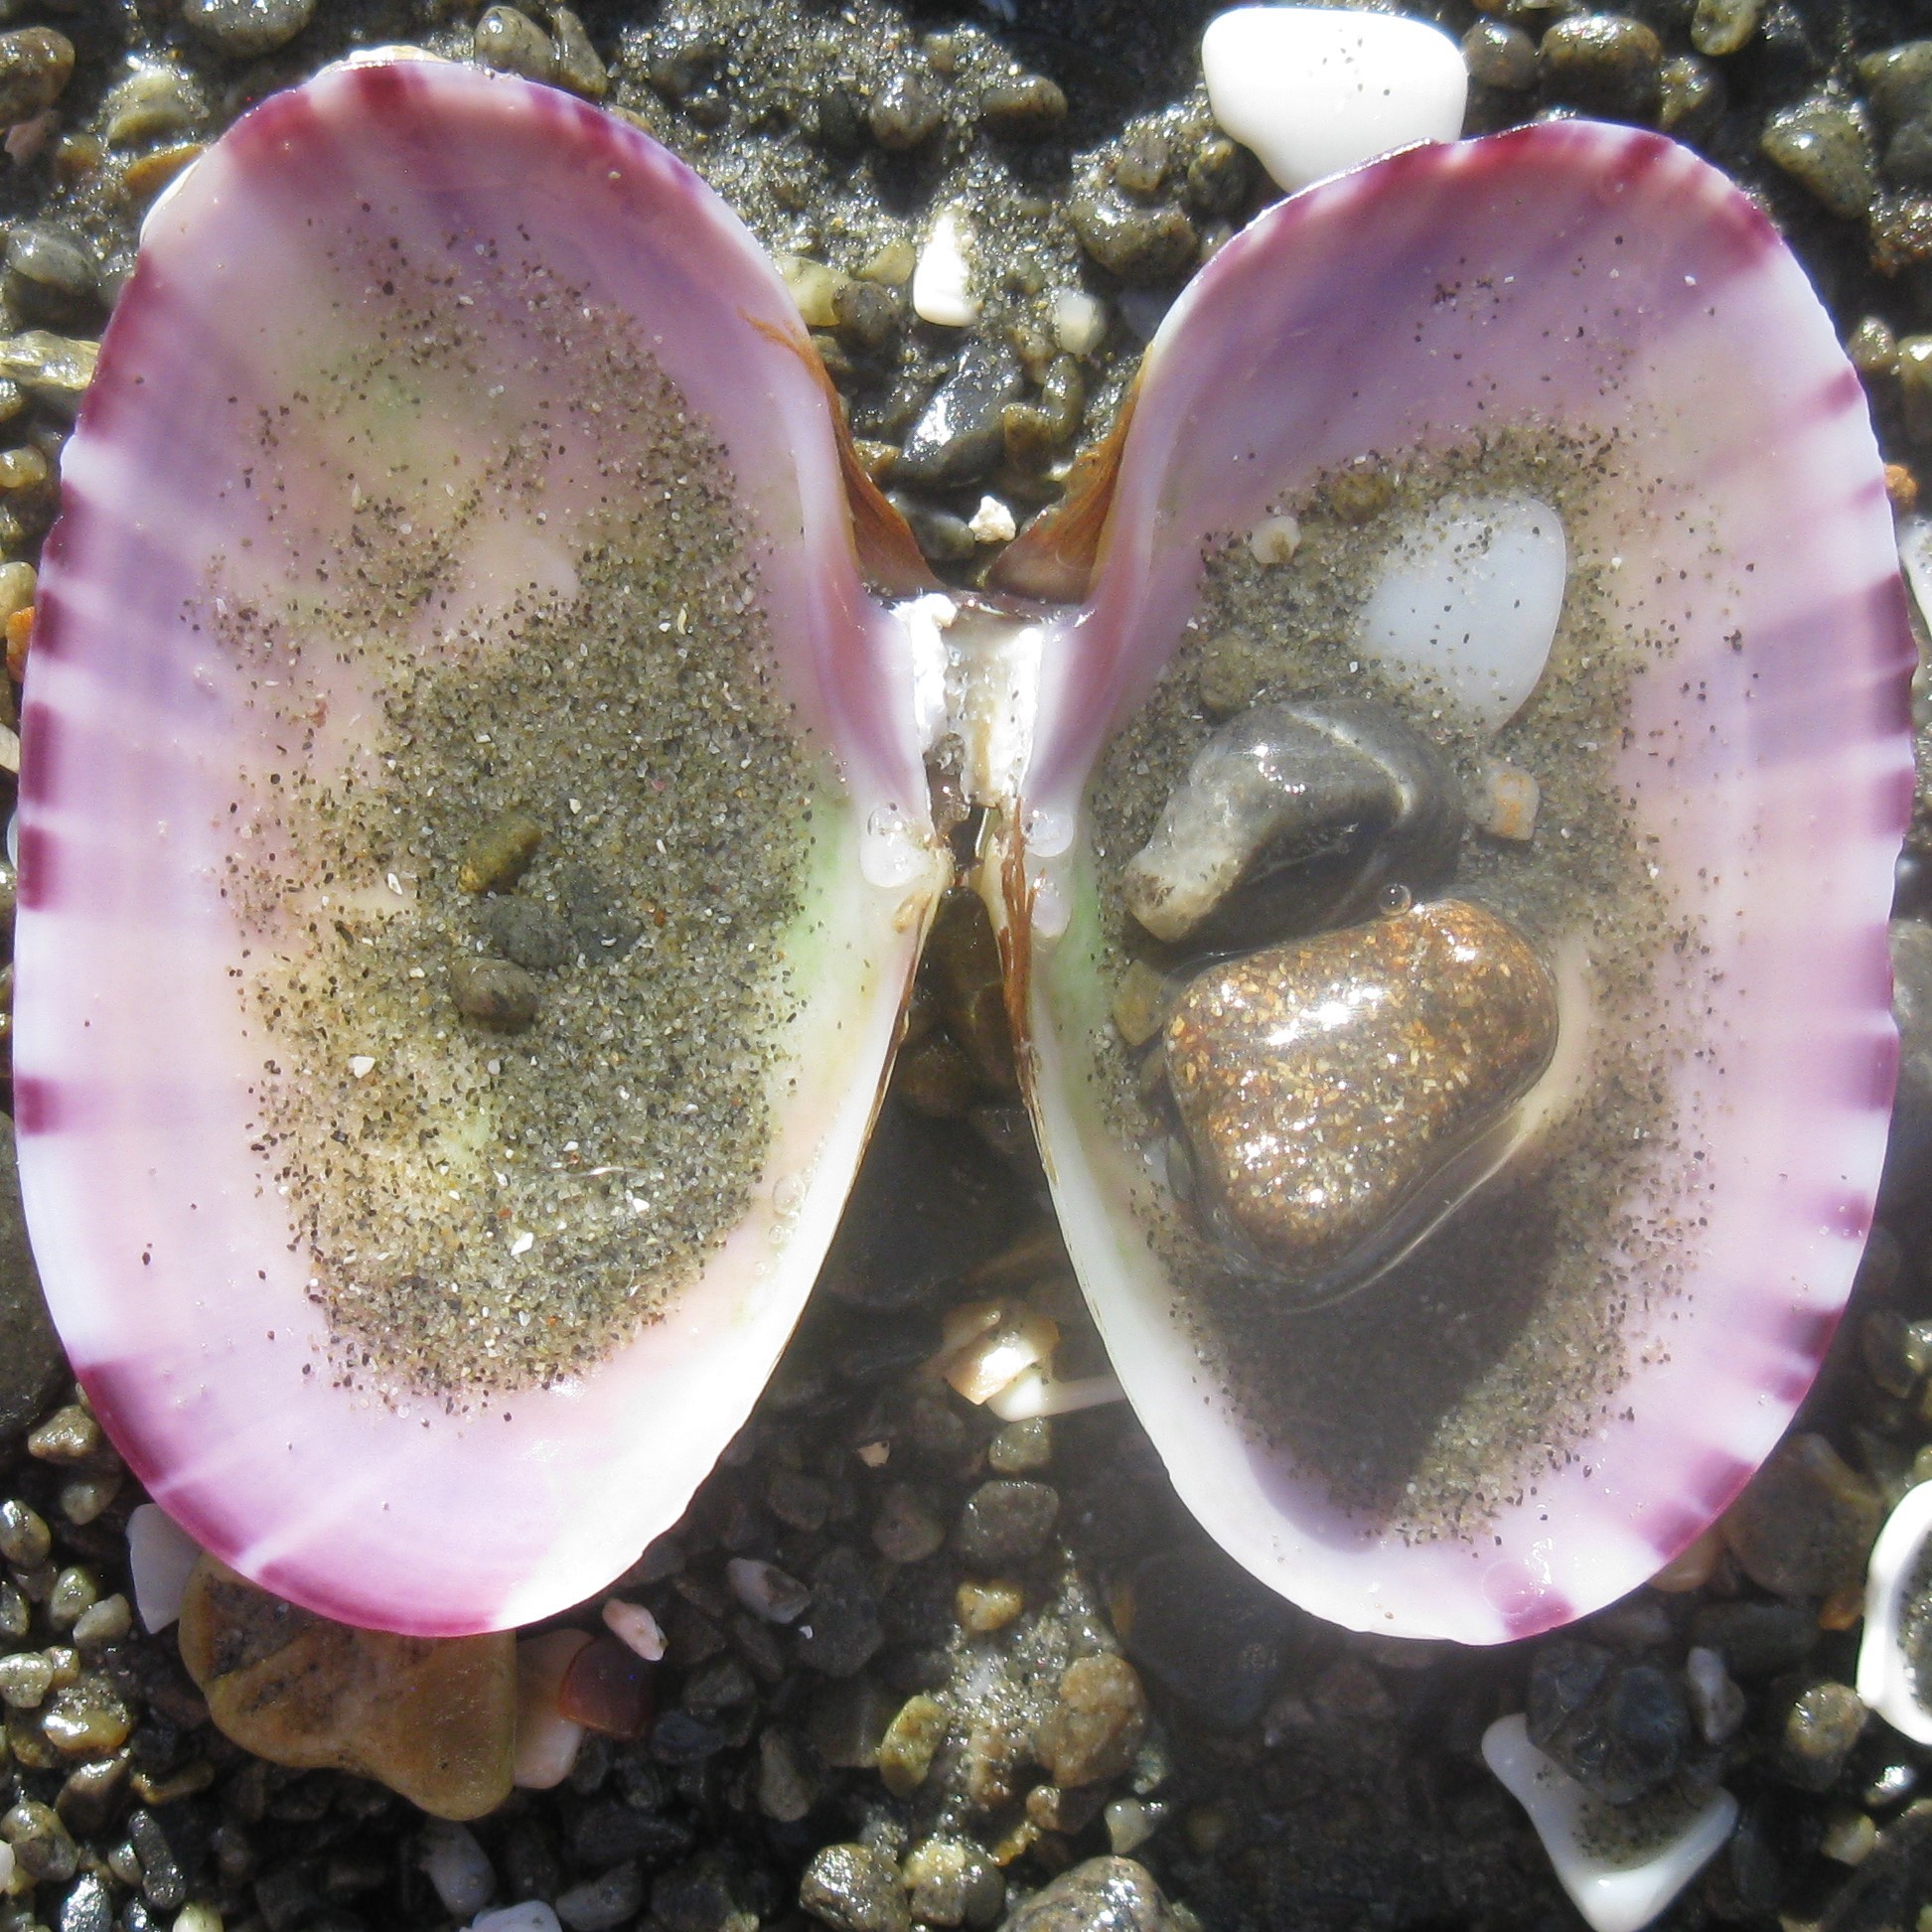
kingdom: Animalia
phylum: Mollusca
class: Bivalvia
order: Cardiida
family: Psammobiidae
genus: Gari
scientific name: Gari stangeri
